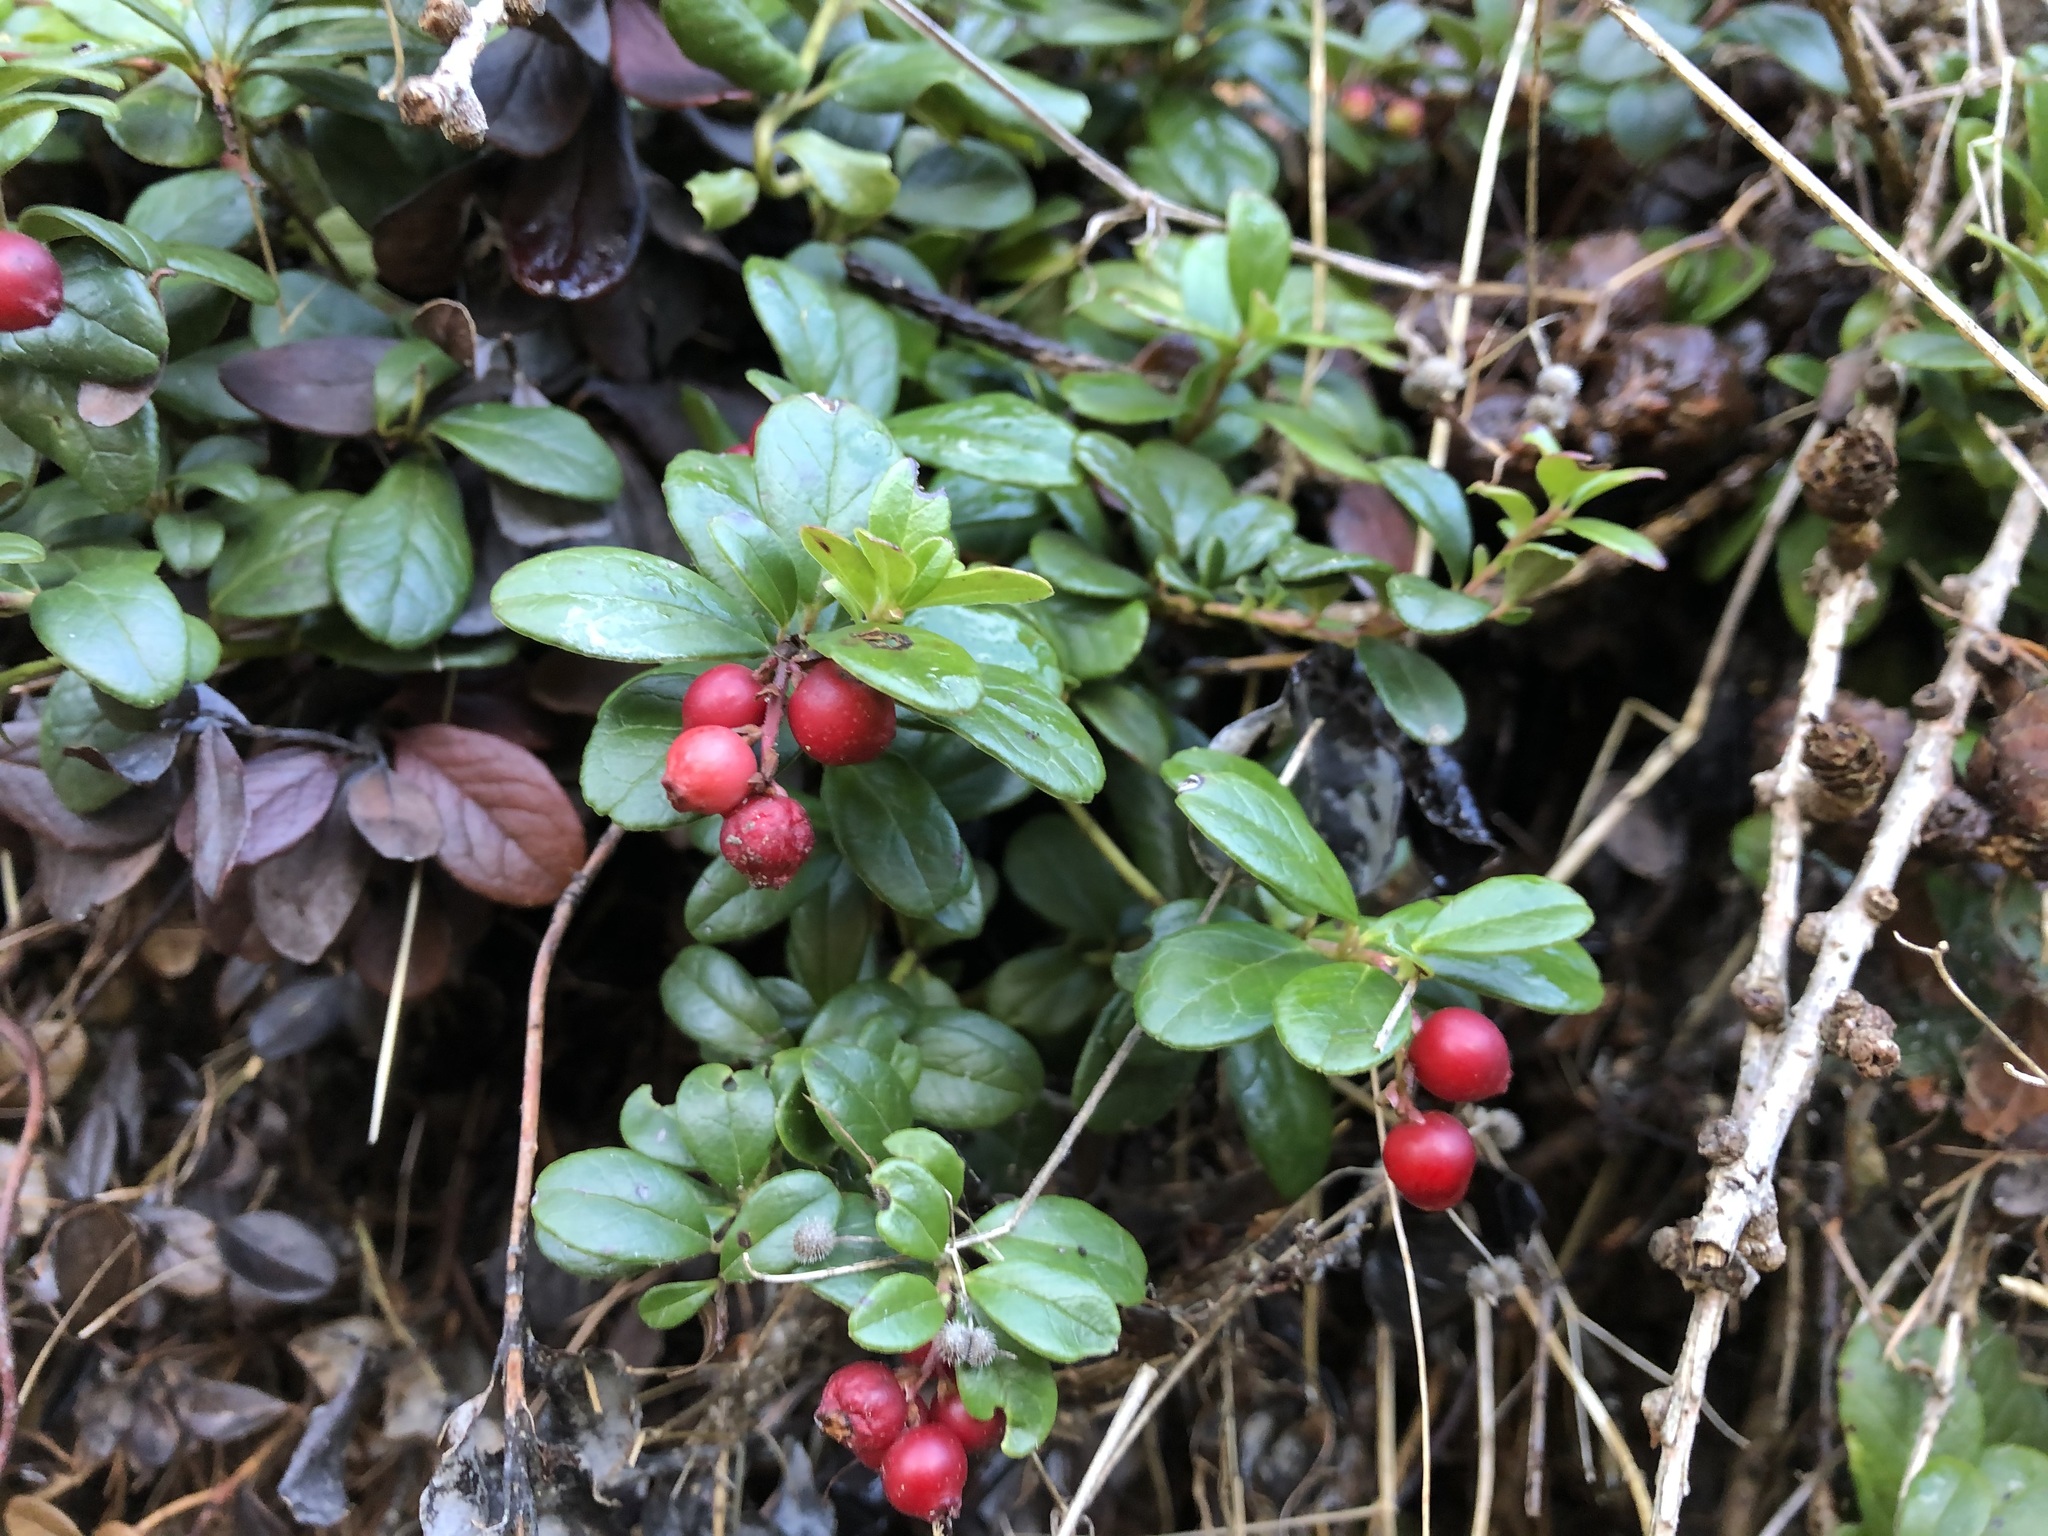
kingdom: Plantae
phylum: Tracheophyta
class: Magnoliopsida
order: Ericales
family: Ericaceae
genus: Vaccinium
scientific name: Vaccinium vitis-idaea
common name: Cowberry
